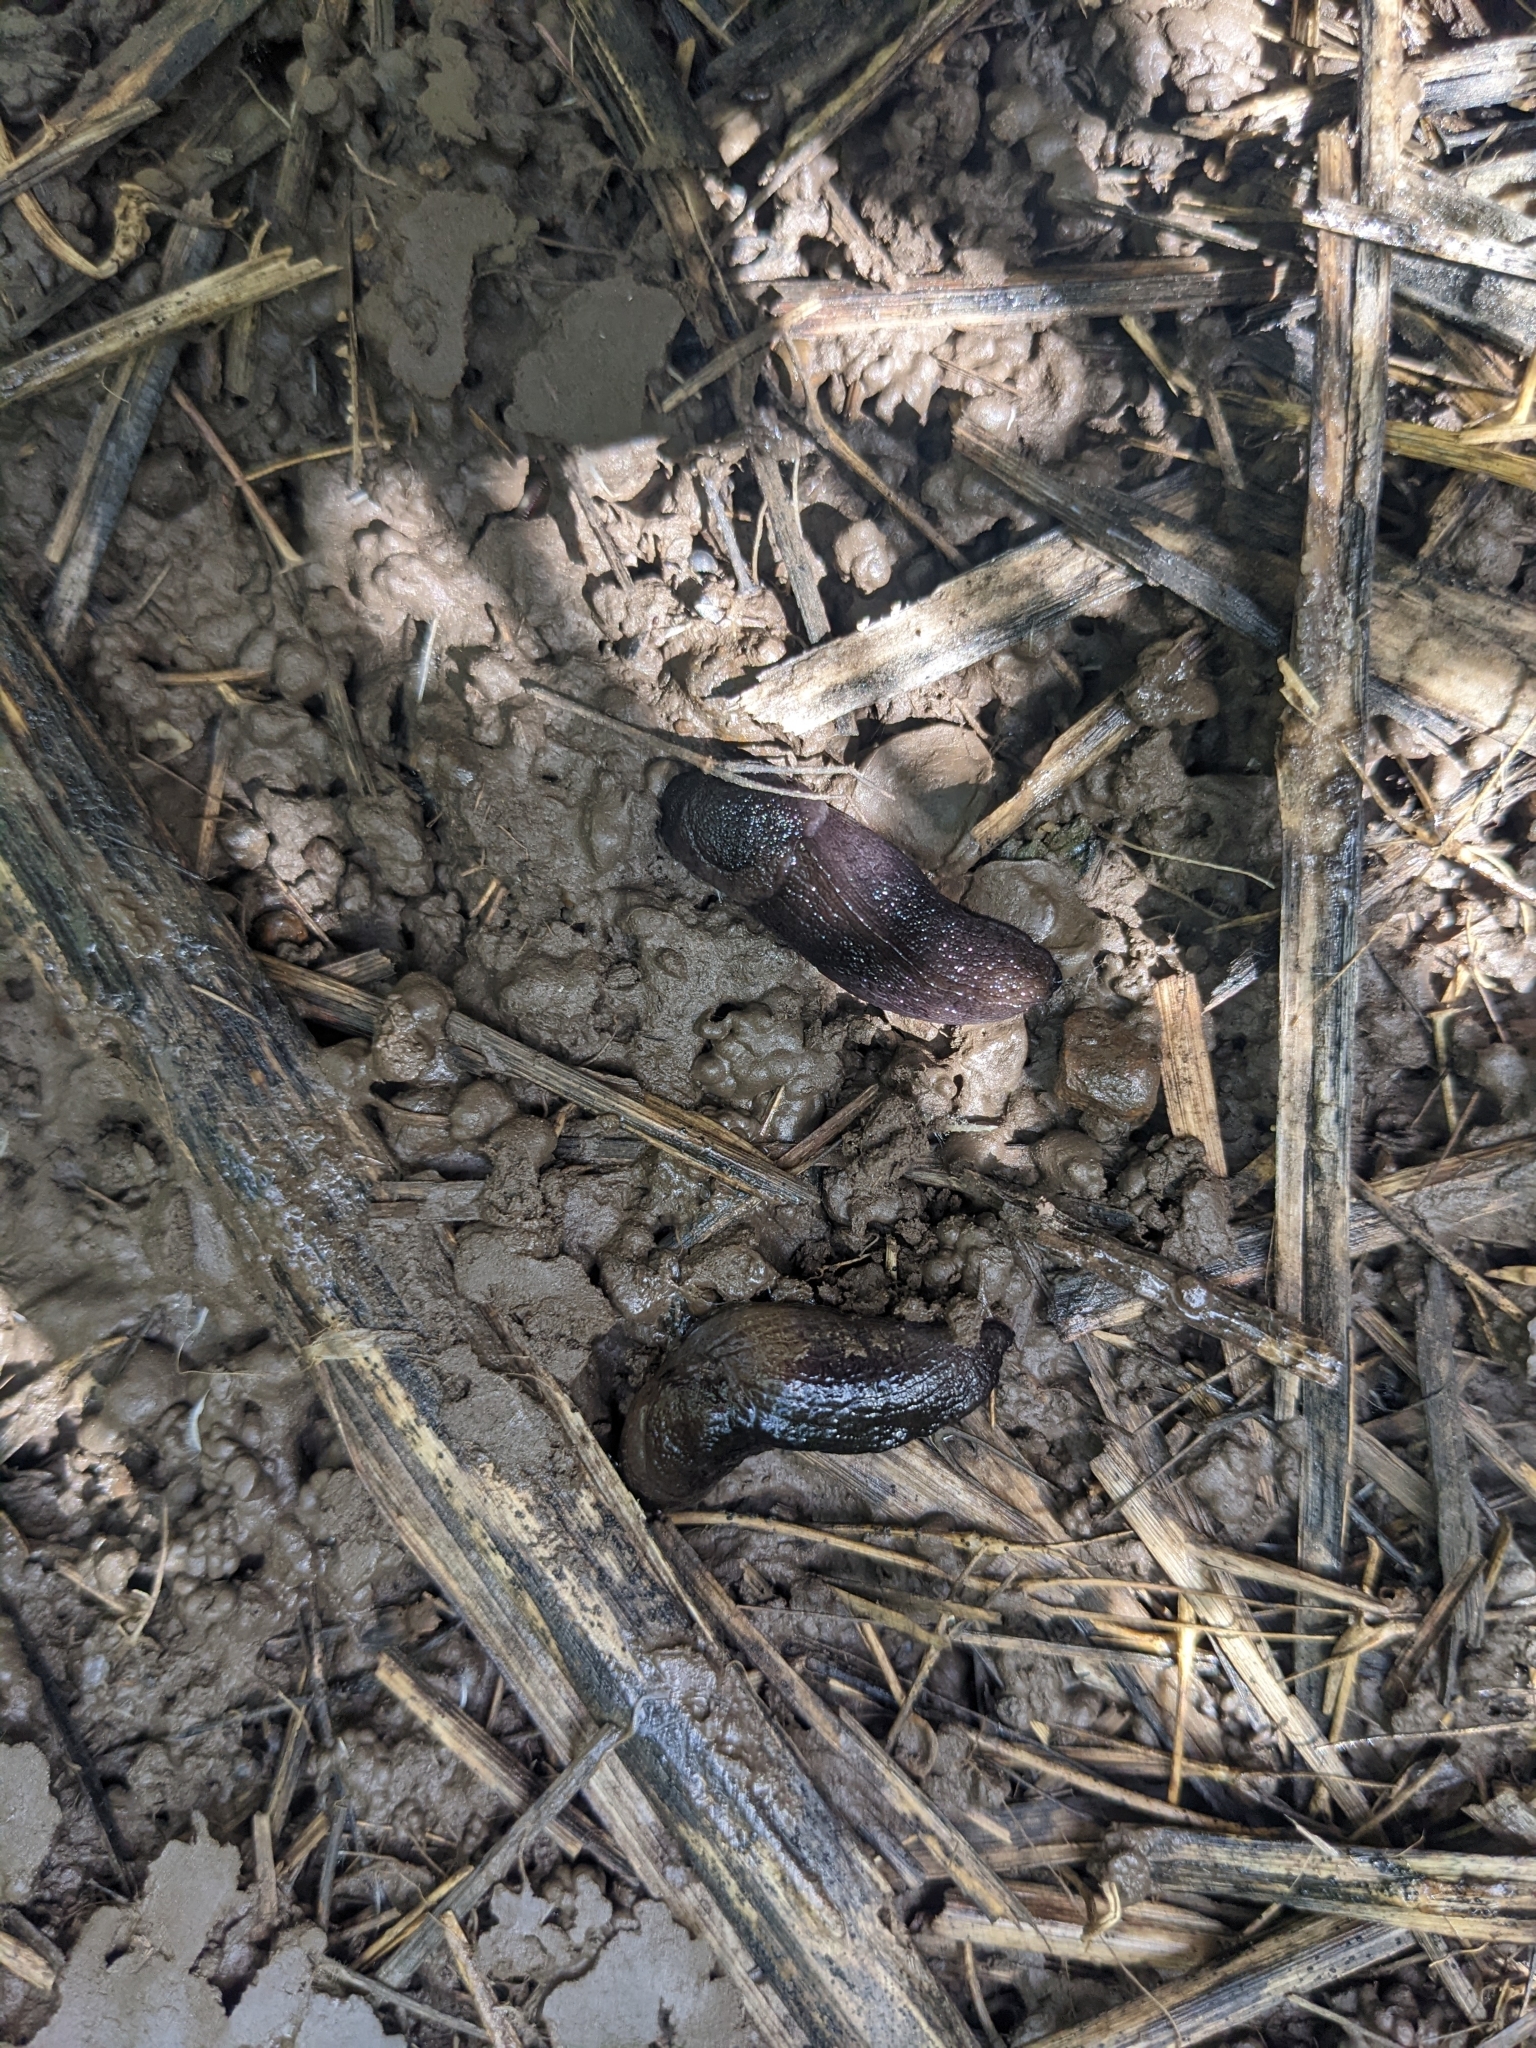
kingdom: Animalia
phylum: Mollusca
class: Gastropoda
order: Stylommatophora
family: Milacidae
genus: Milax
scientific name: Milax gagates
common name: Greenhouse slug
